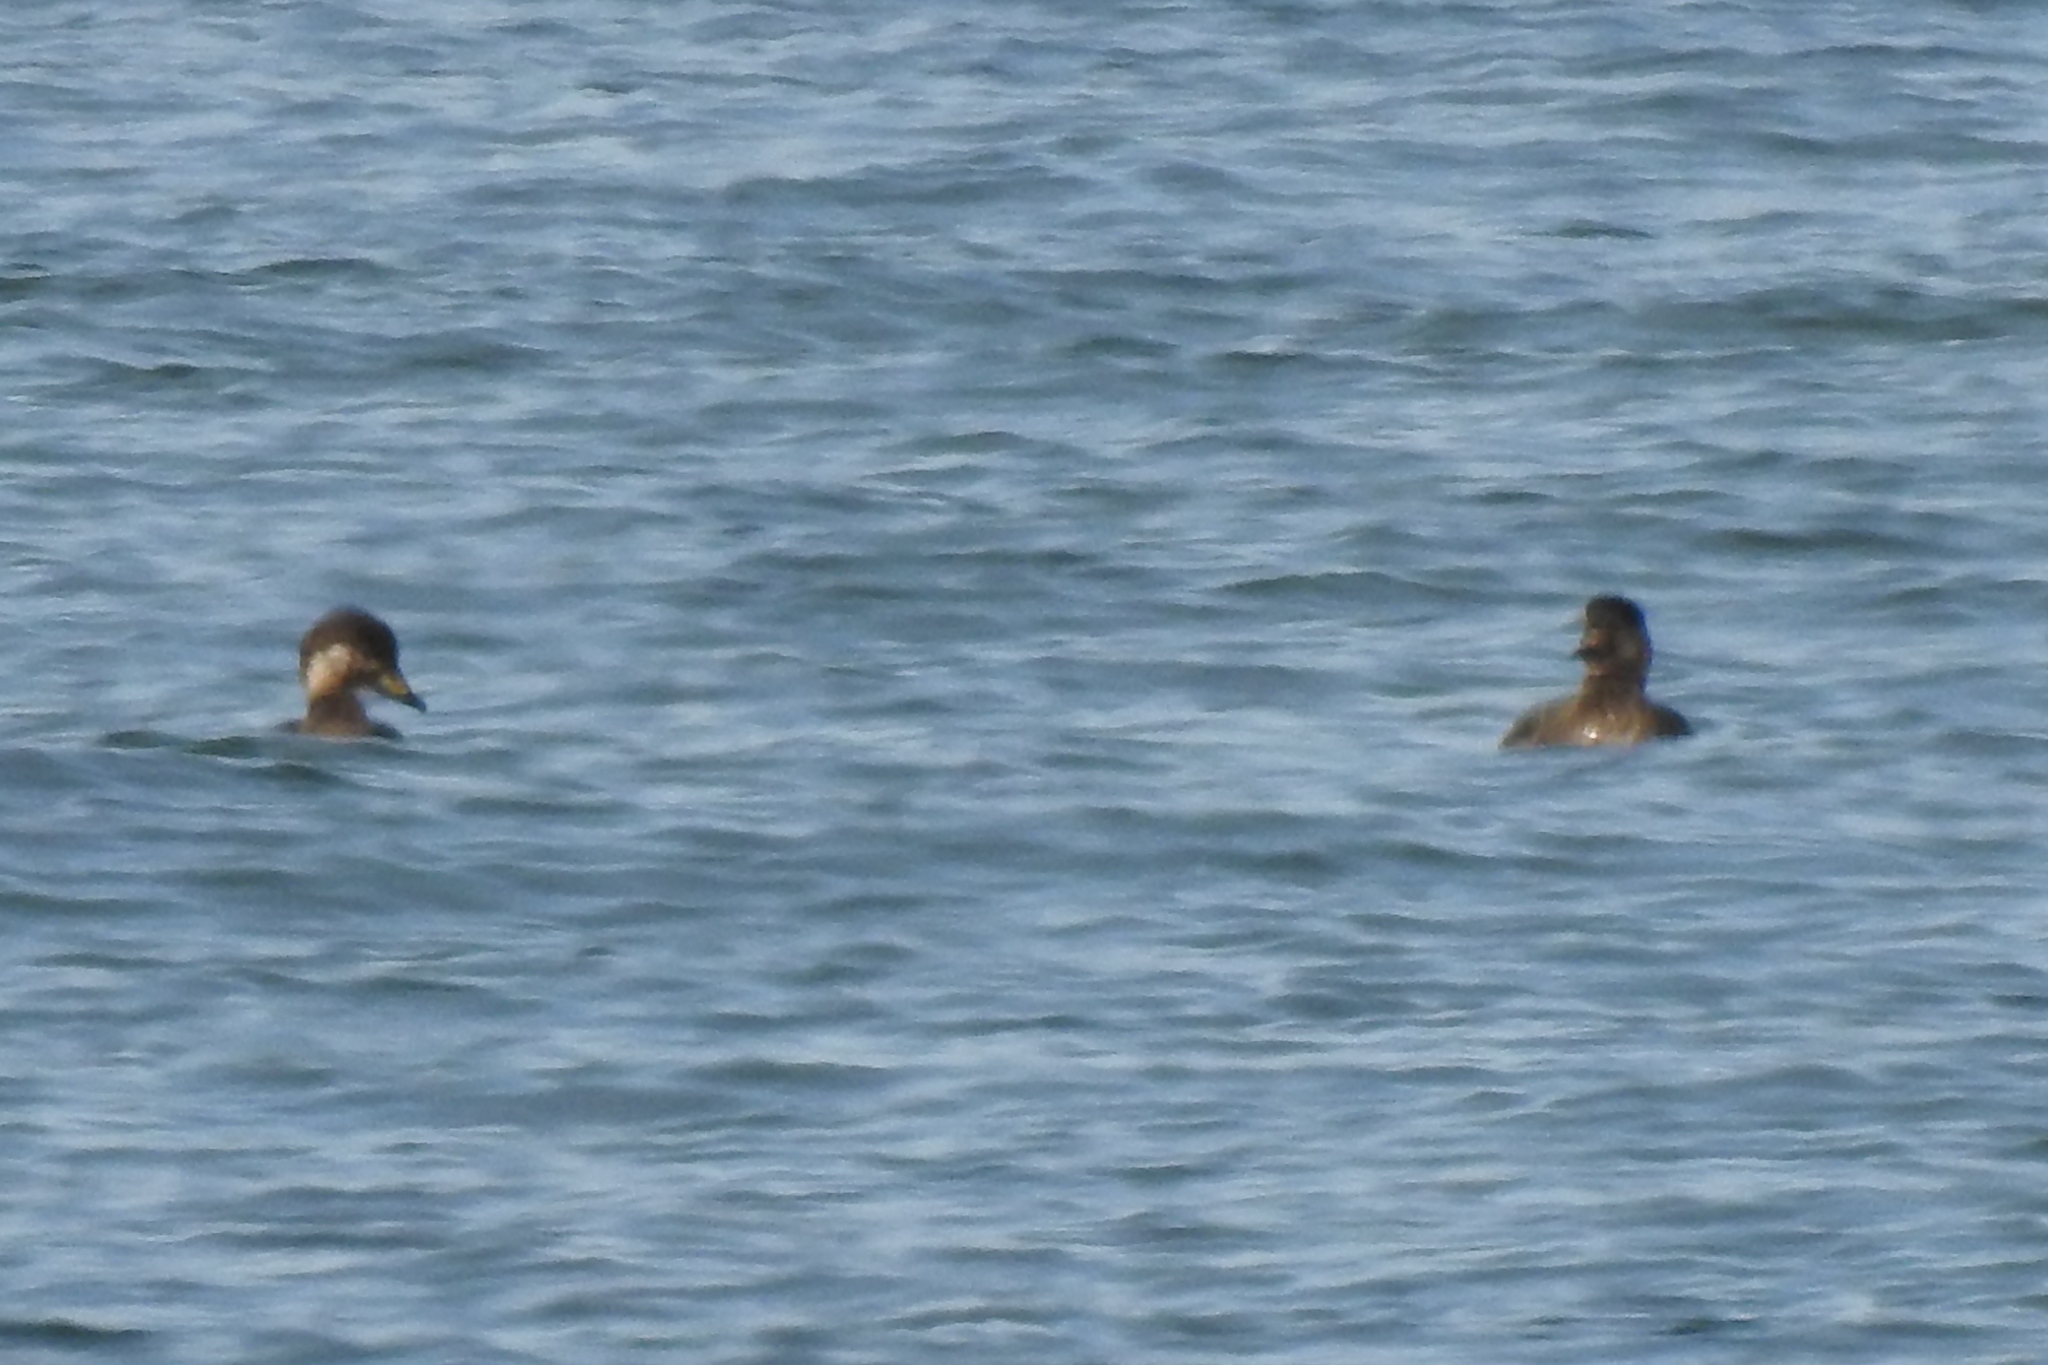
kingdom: Animalia
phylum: Chordata
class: Aves
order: Anseriformes
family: Anatidae
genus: Melanitta
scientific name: Melanitta americana
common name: Black scoter
